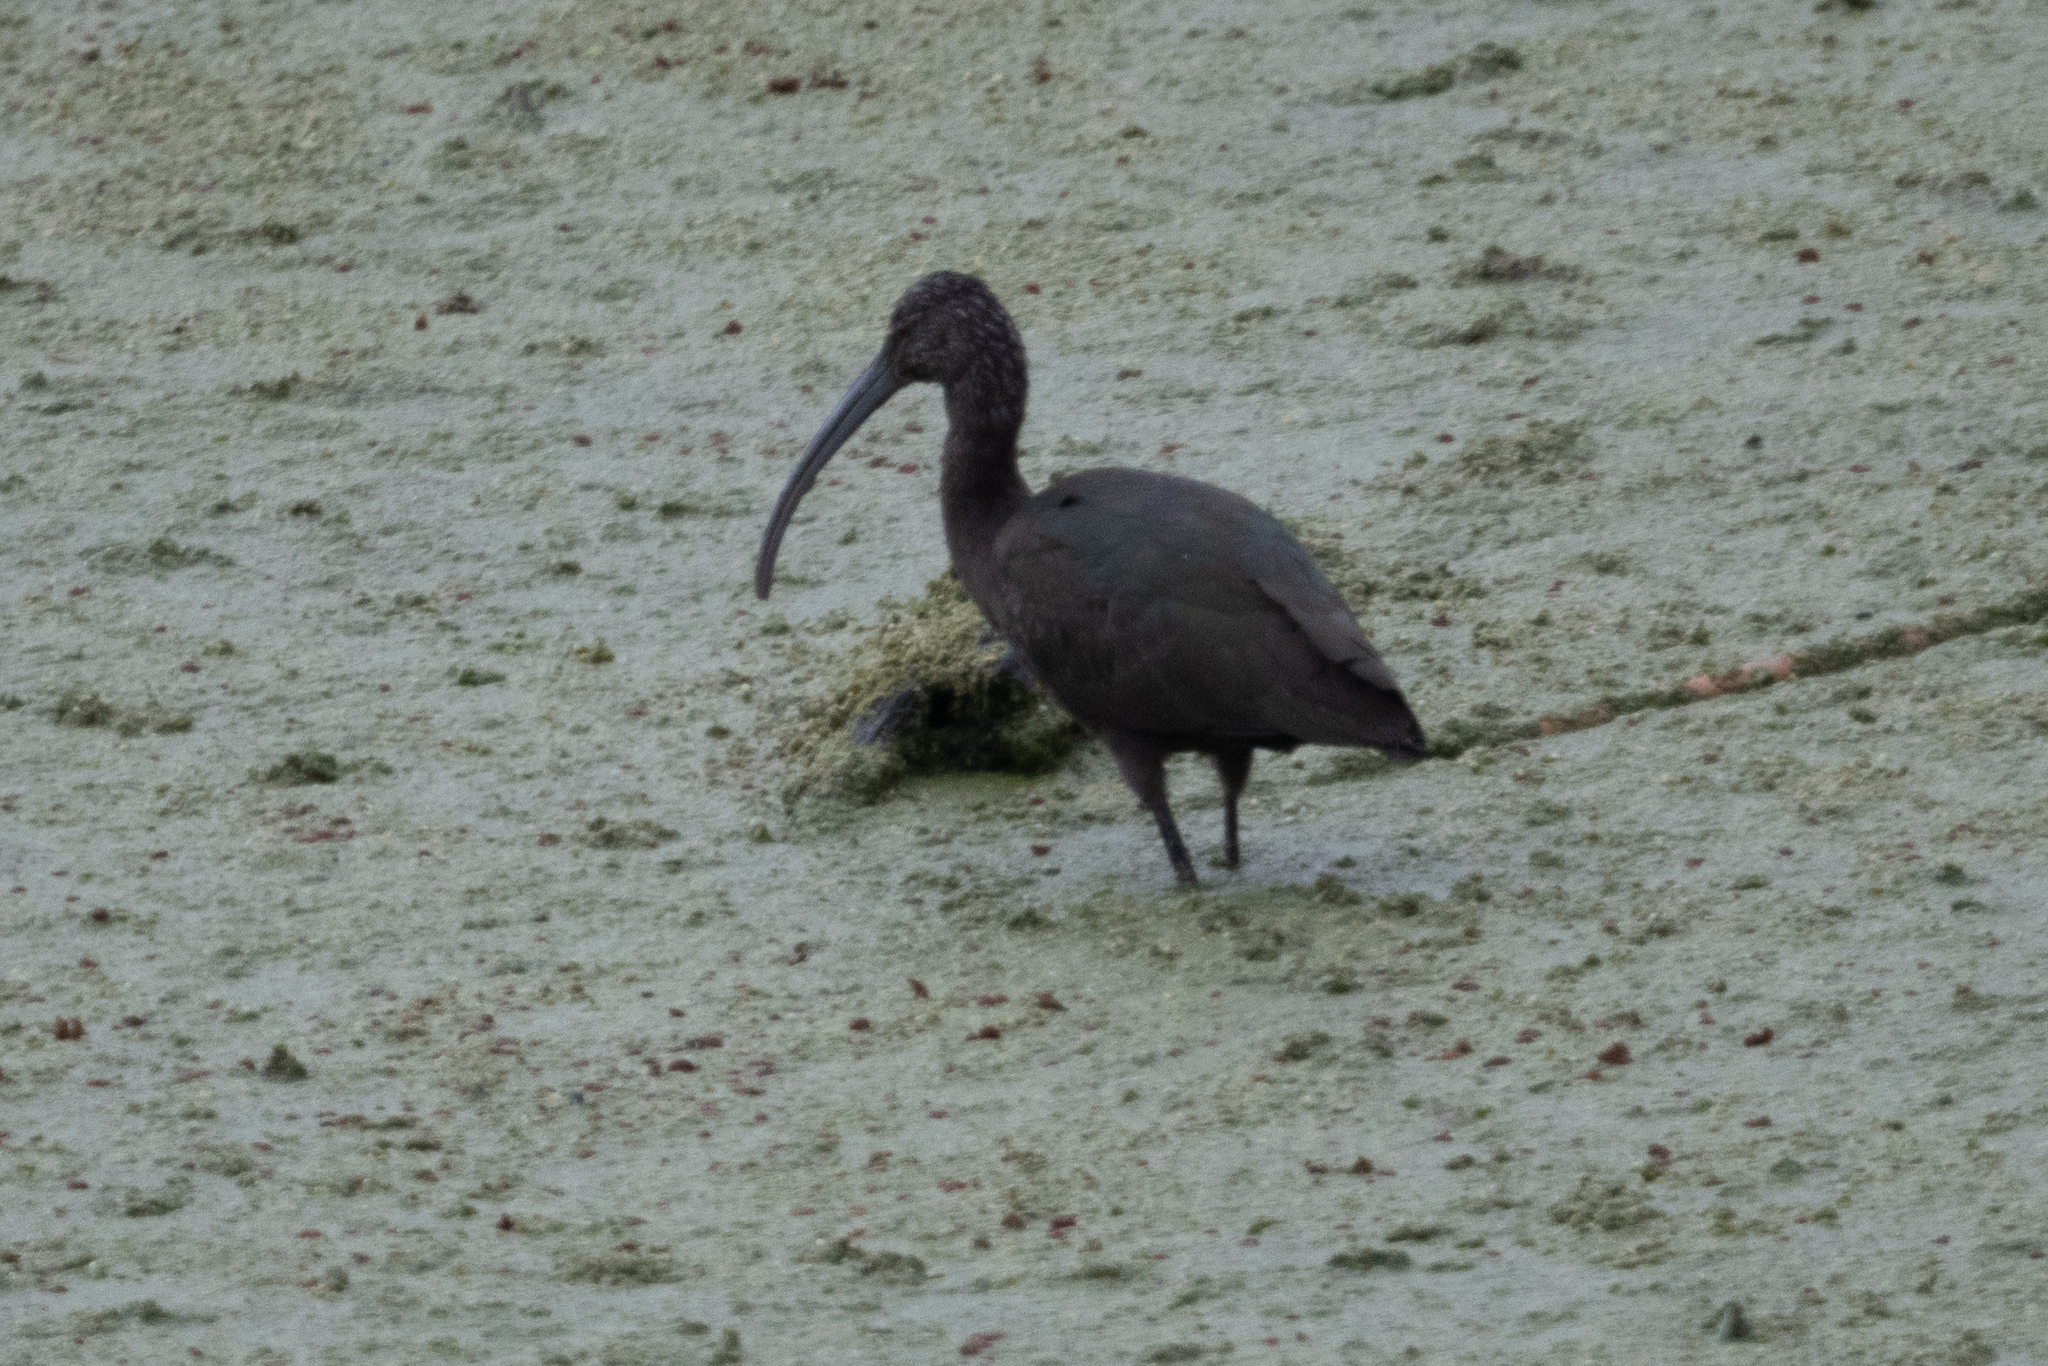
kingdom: Animalia
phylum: Chordata
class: Aves
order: Pelecaniformes
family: Threskiornithidae
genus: Plegadis
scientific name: Plegadis chihi
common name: White-faced ibis
